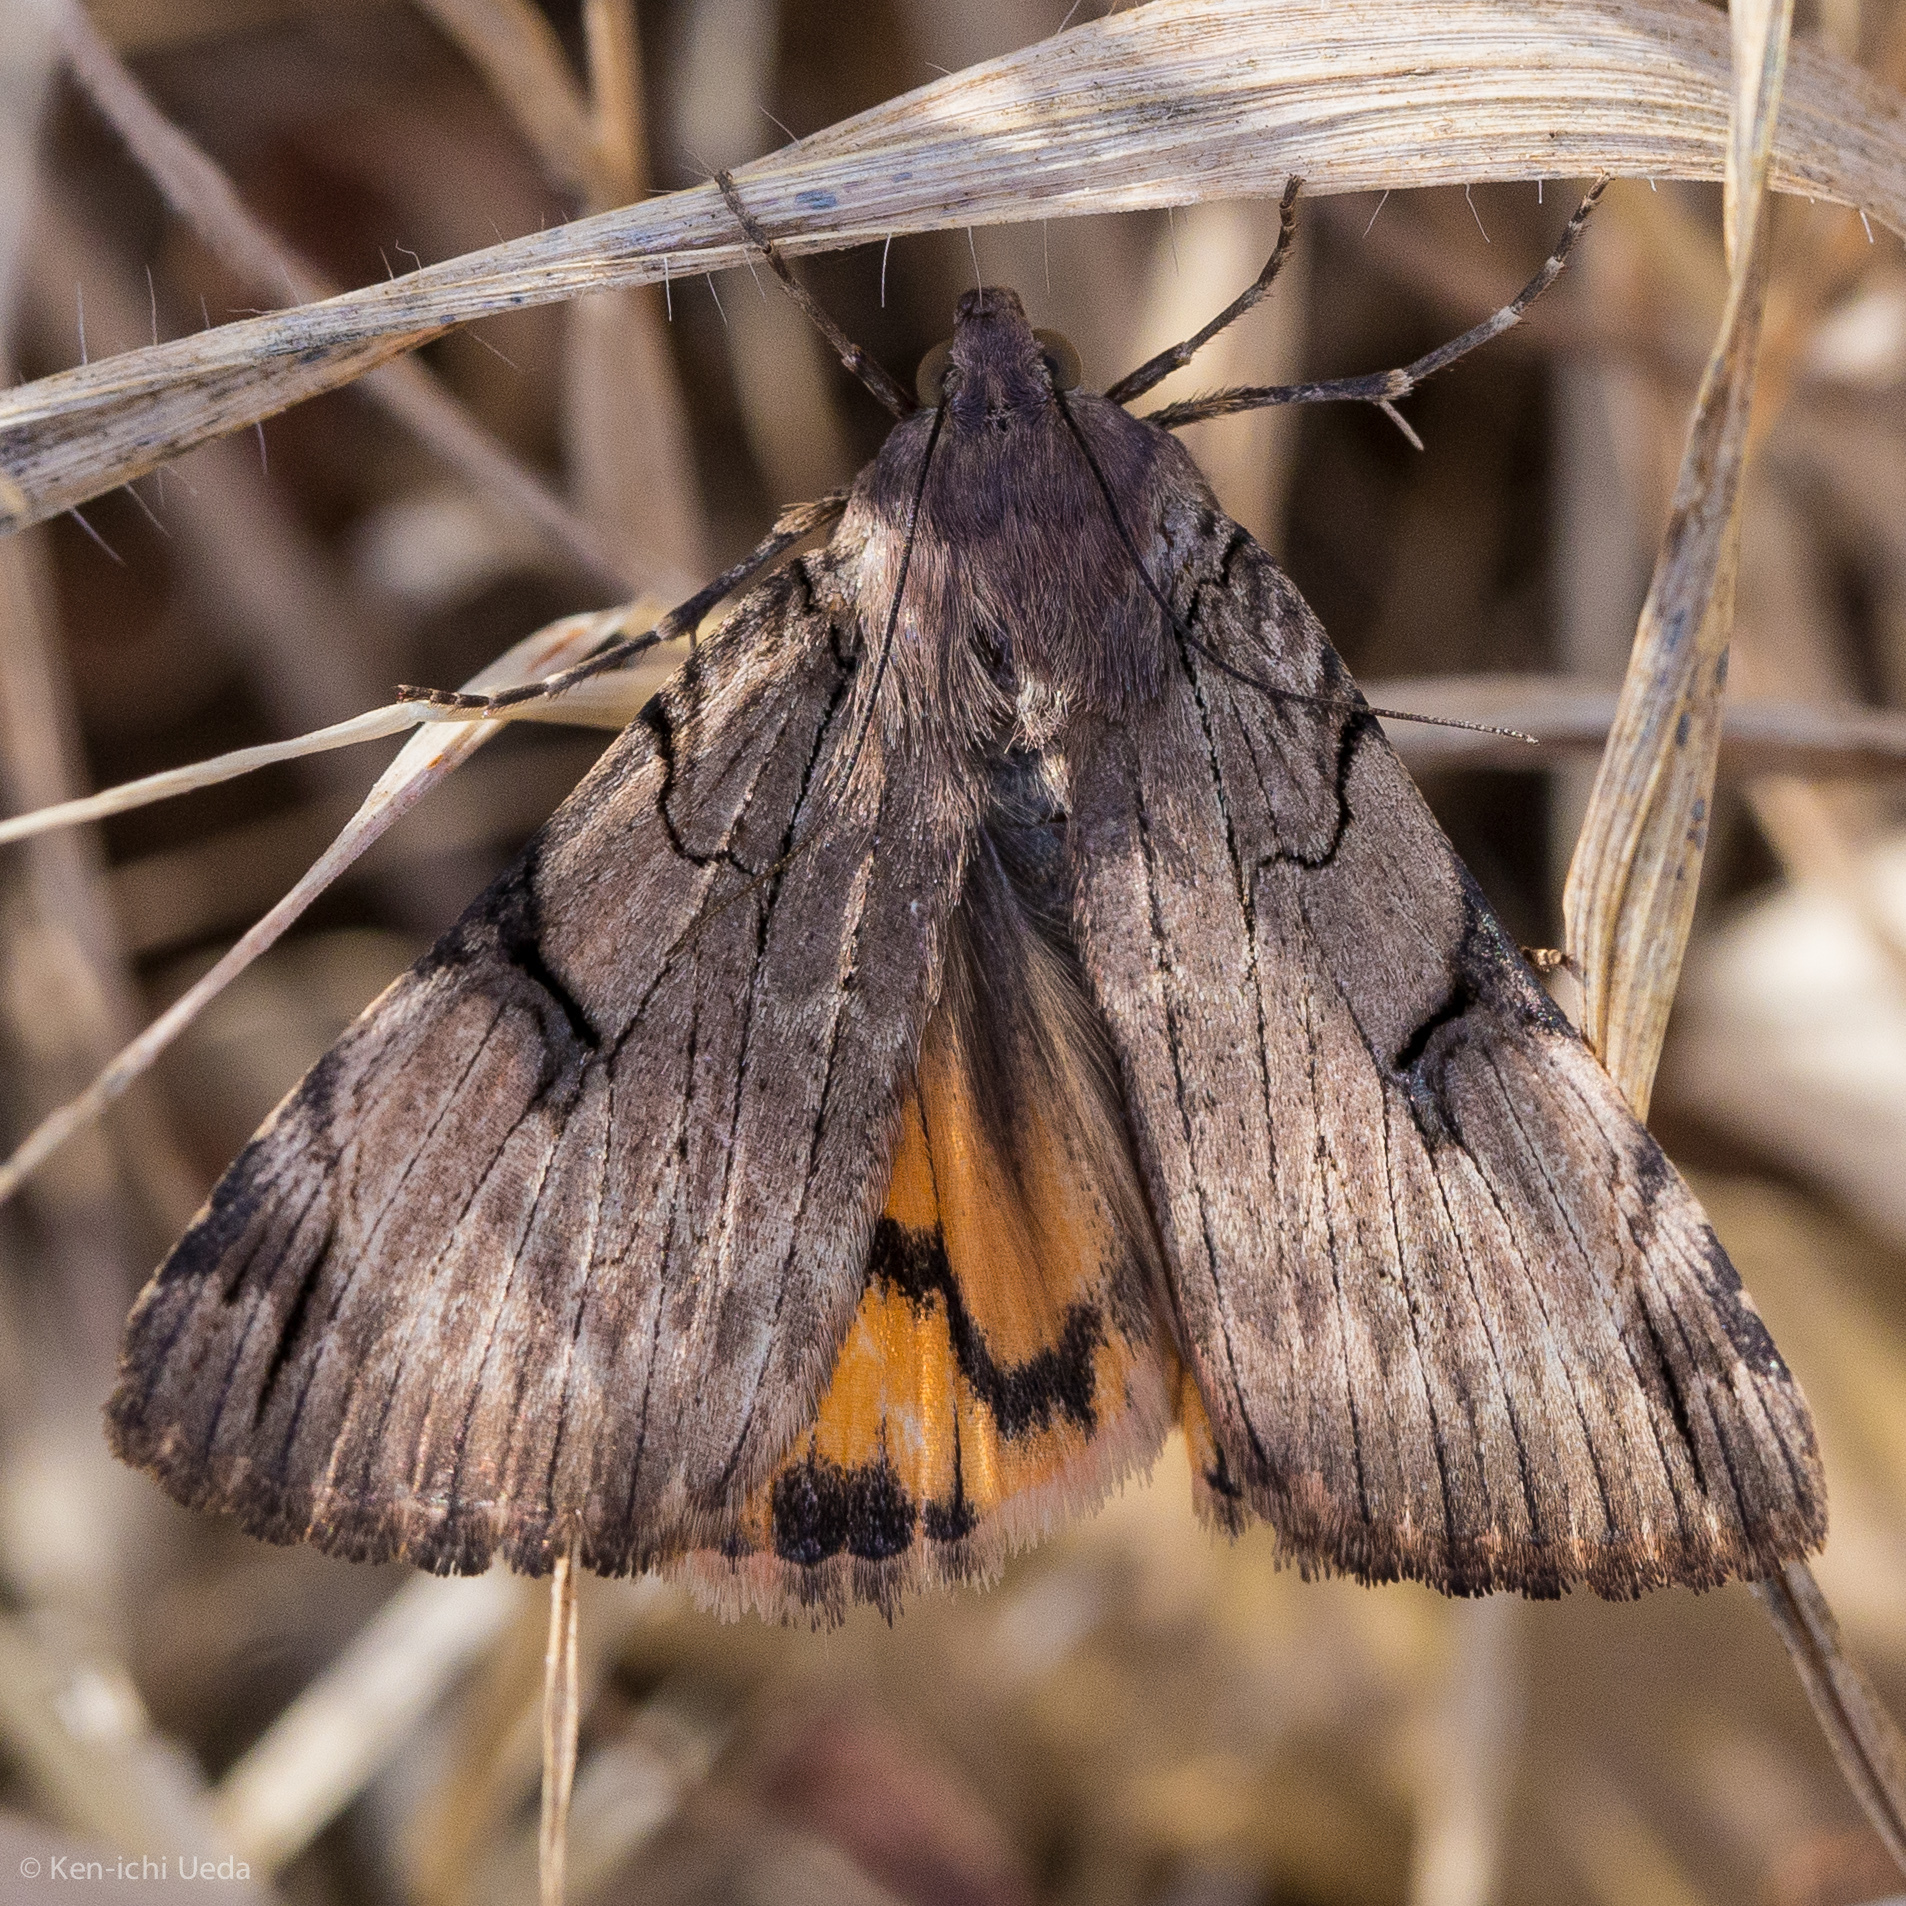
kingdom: Animalia
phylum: Arthropoda
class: Insecta
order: Lepidoptera
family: Erebidae
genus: Drasteria
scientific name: Drasteria ochracea
